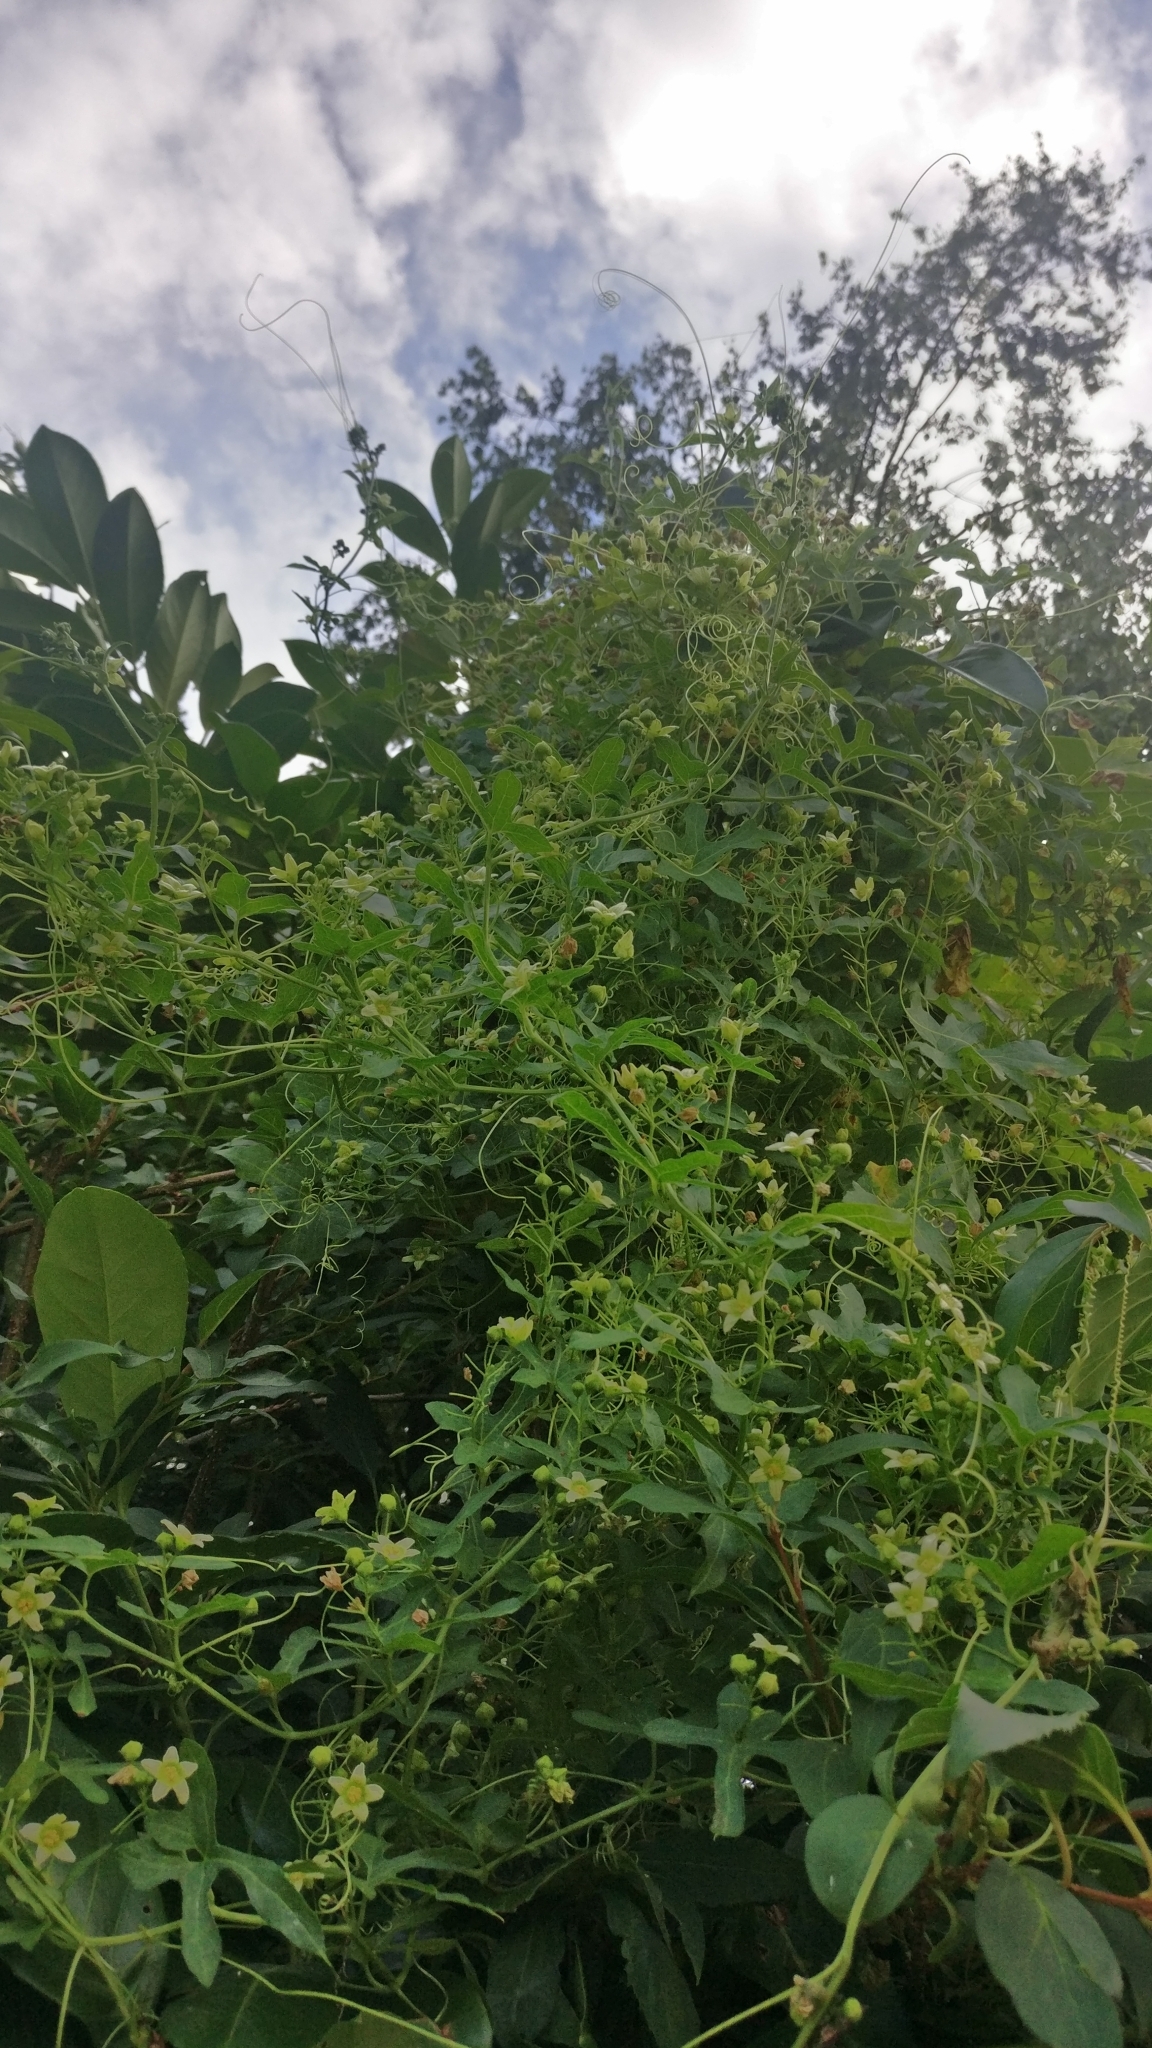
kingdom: Plantae
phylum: Tracheophyta
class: Magnoliopsida
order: Cucurbitales
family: Cucurbitaceae
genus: Bryonia
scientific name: Bryonia cretica
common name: Cretan bryony
